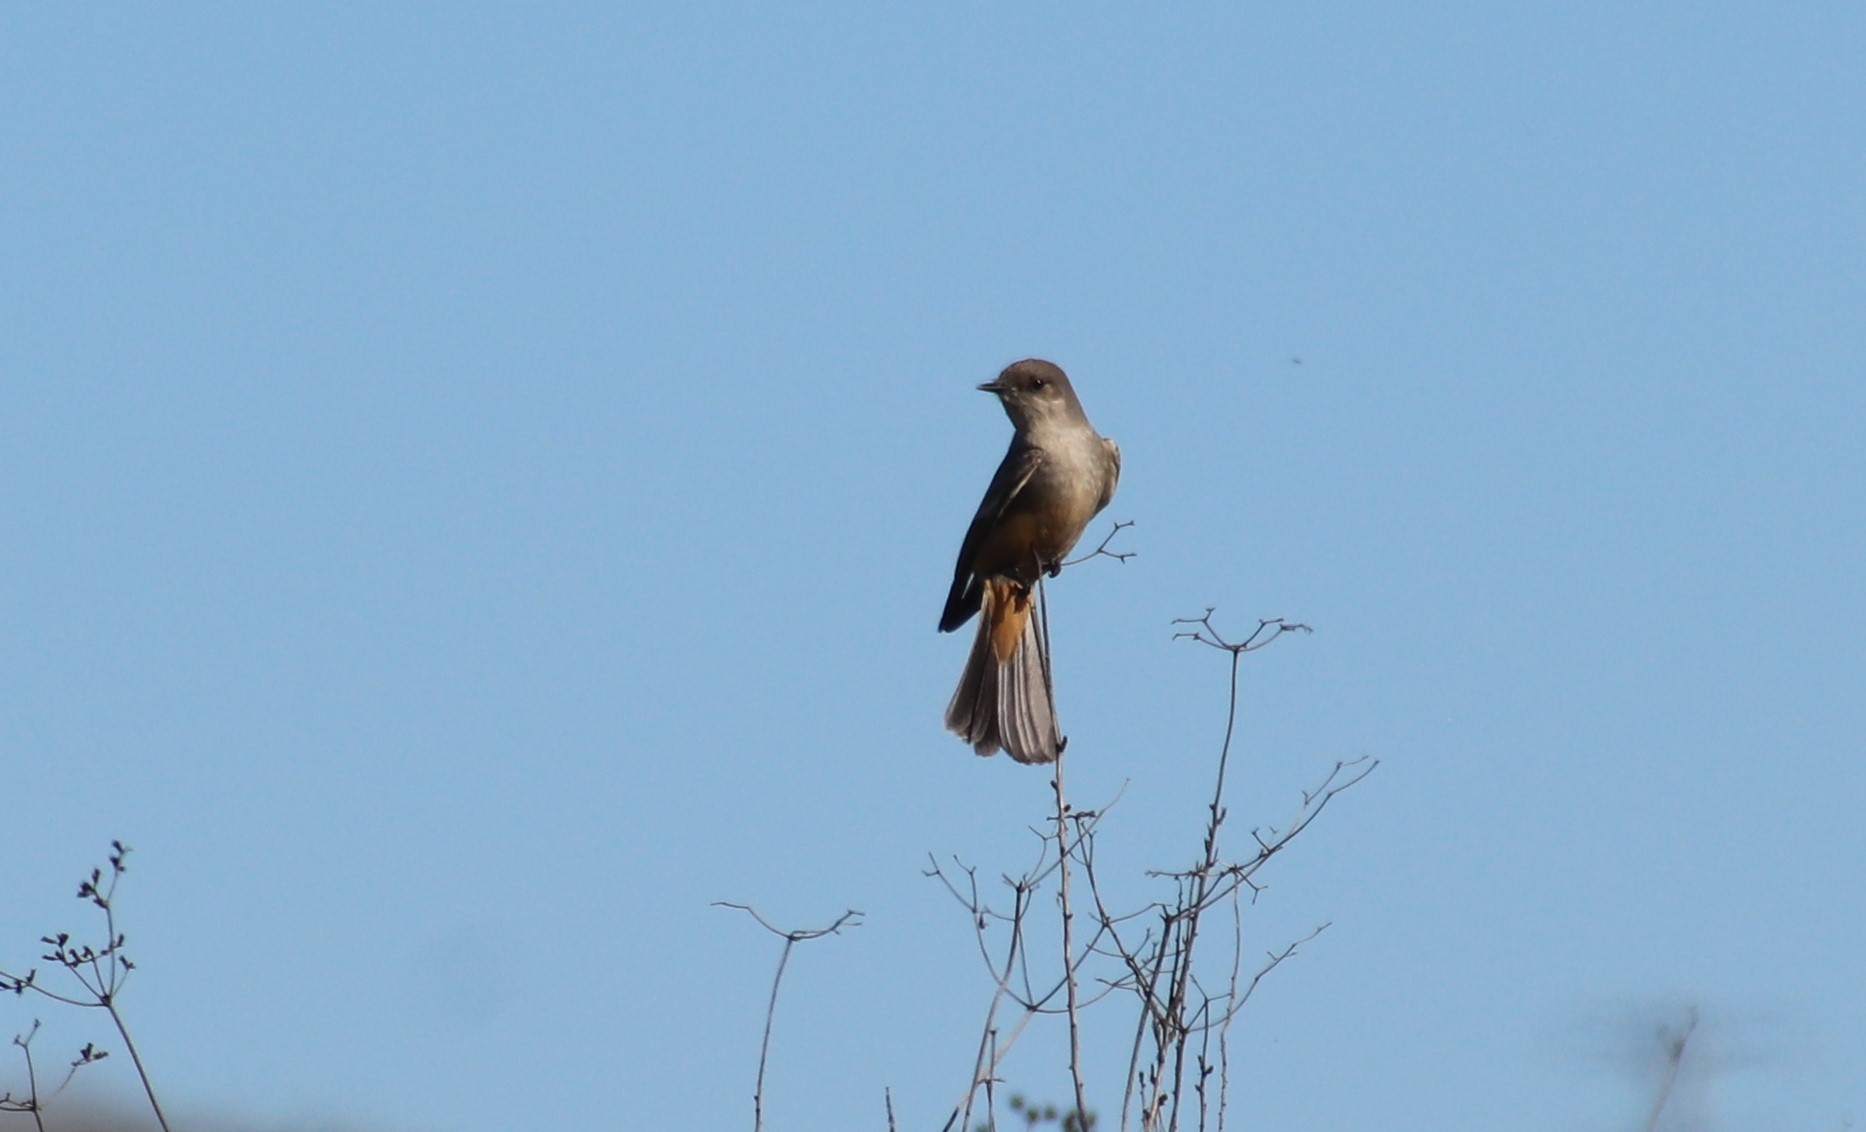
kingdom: Animalia
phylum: Chordata
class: Aves
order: Passeriformes
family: Tyrannidae
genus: Sayornis
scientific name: Sayornis saya
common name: Say's phoebe
